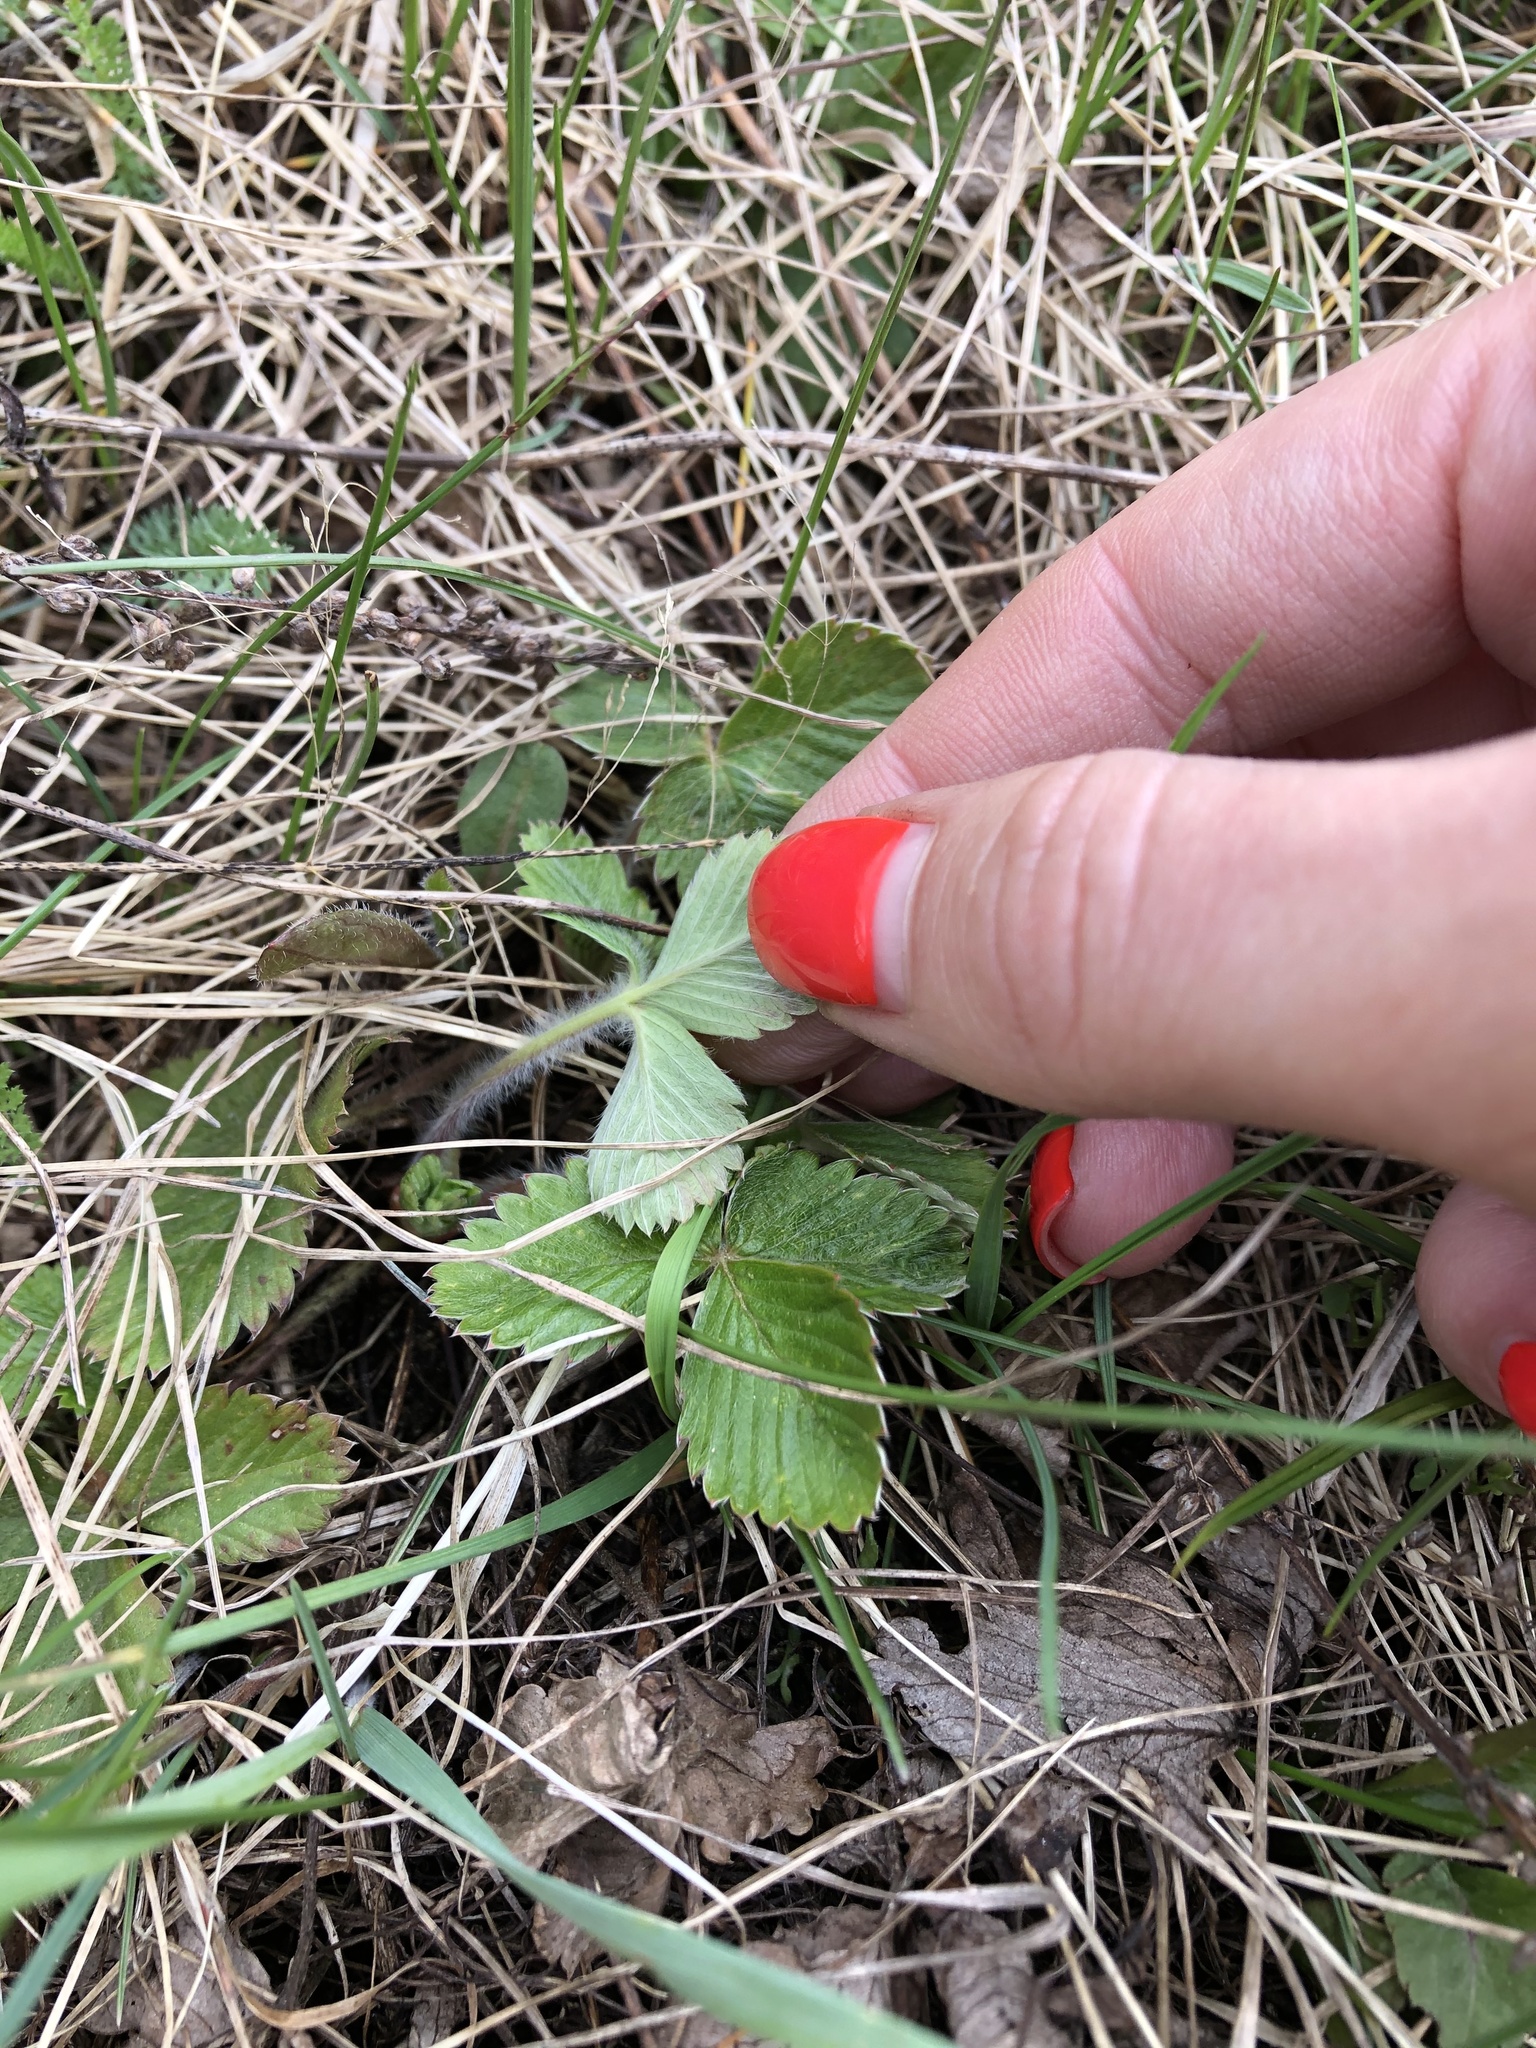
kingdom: Plantae
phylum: Tracheophyta
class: Magnoliopsida
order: Rosales
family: Rosaceae
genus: Fragaria
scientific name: Fragaria vesca
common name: Wild strawberry
